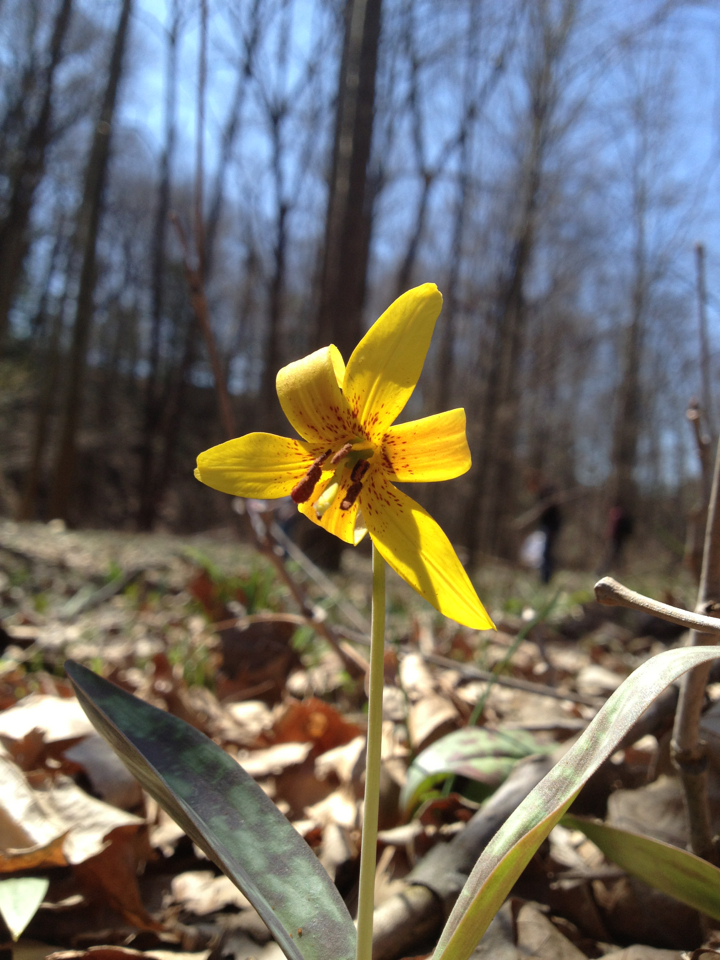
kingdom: Plantae
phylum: Tracheophyta
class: Liliopsida
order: Liliales
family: Liliaceae
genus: Erythronium
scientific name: Erythronium americanum
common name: Yellow adder's-tongue
